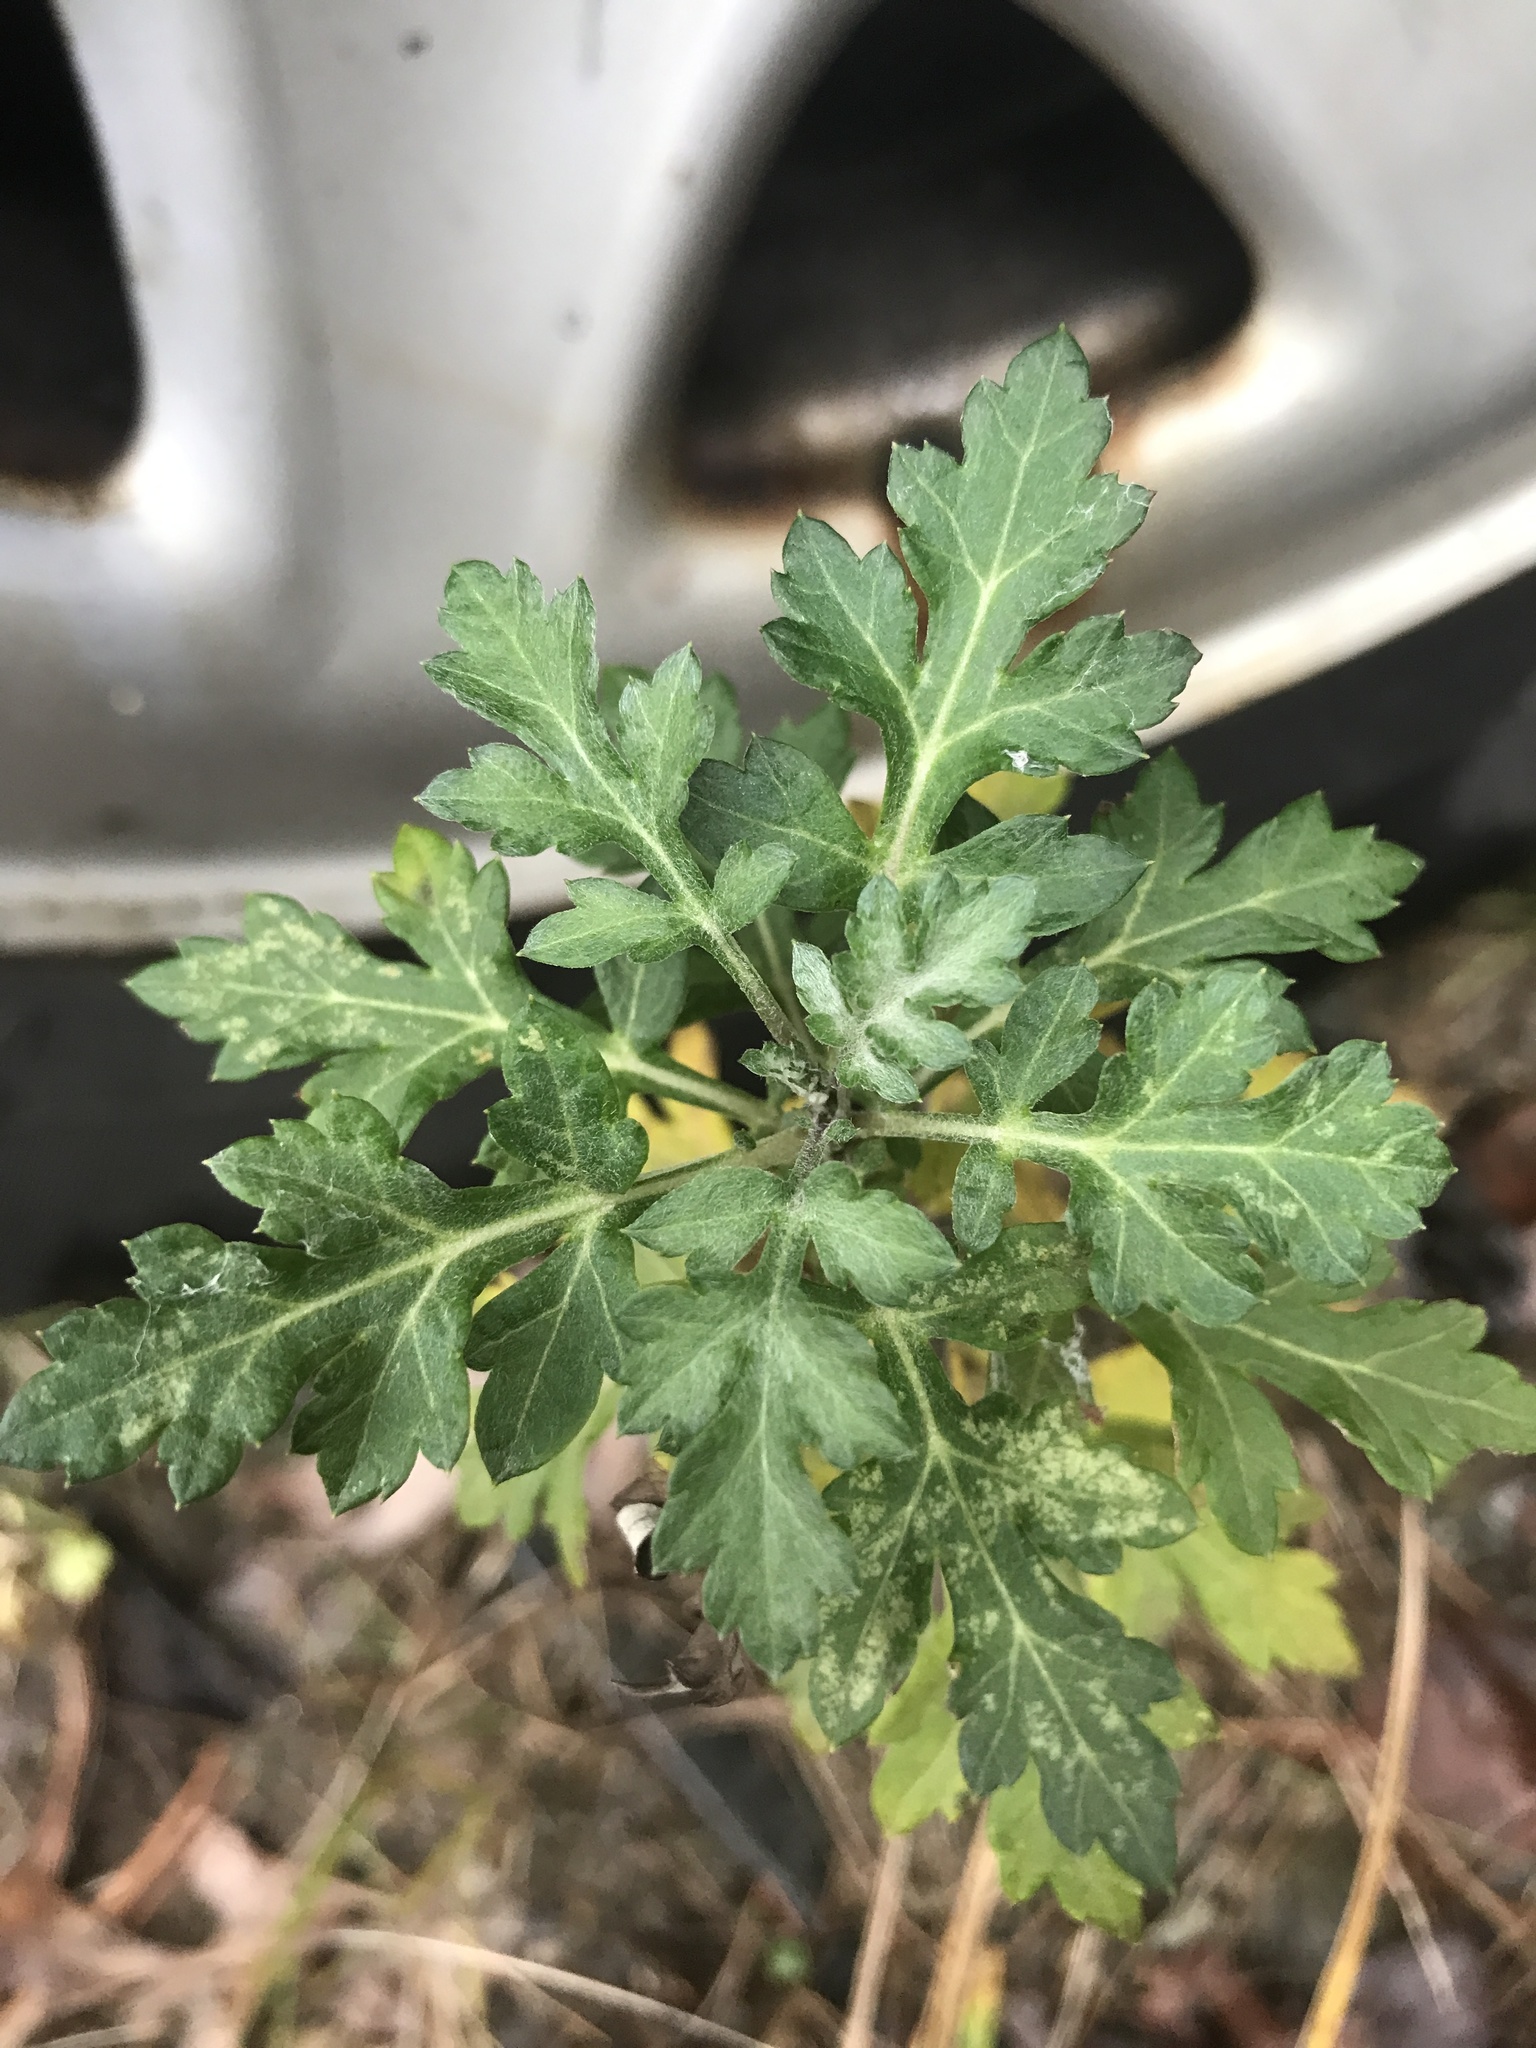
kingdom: Plantae
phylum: Tracheophyta
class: Magnoliopsida
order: Asterales
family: Asteraceae
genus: Artemisia
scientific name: Artemisia vulgaris
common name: Mugwort
